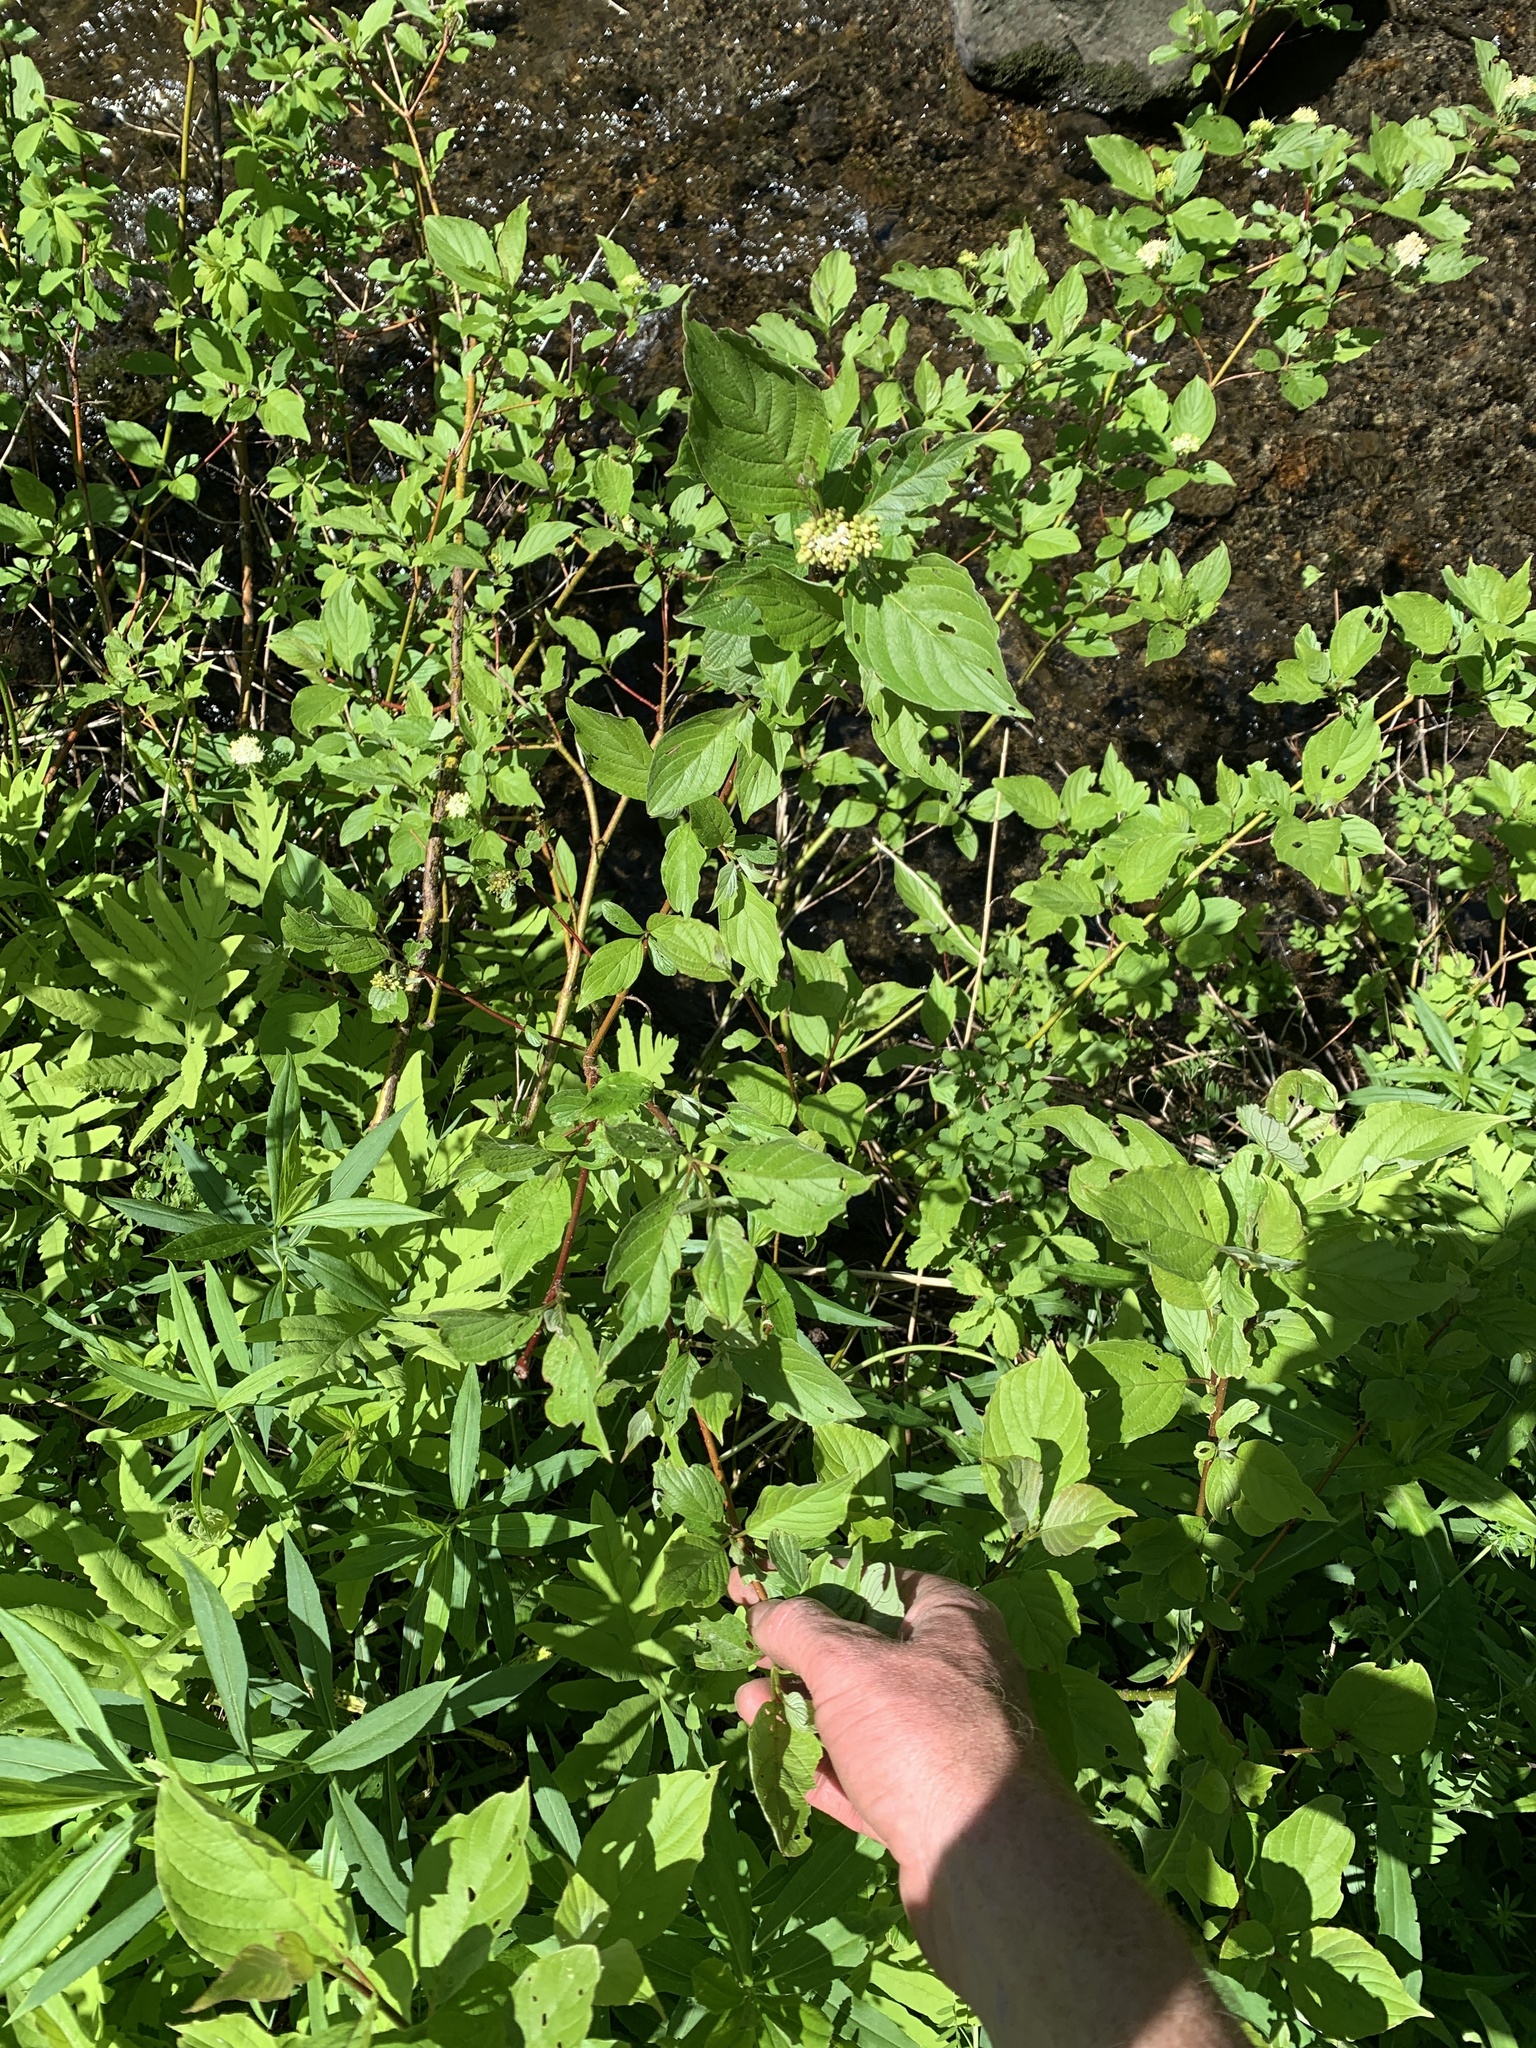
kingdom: Plantae
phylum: Tracheophyta
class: Magnoliopsida
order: Cornales
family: Cornaceae
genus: Cornus
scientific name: Cornus sericea
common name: Red-osier dogwood
